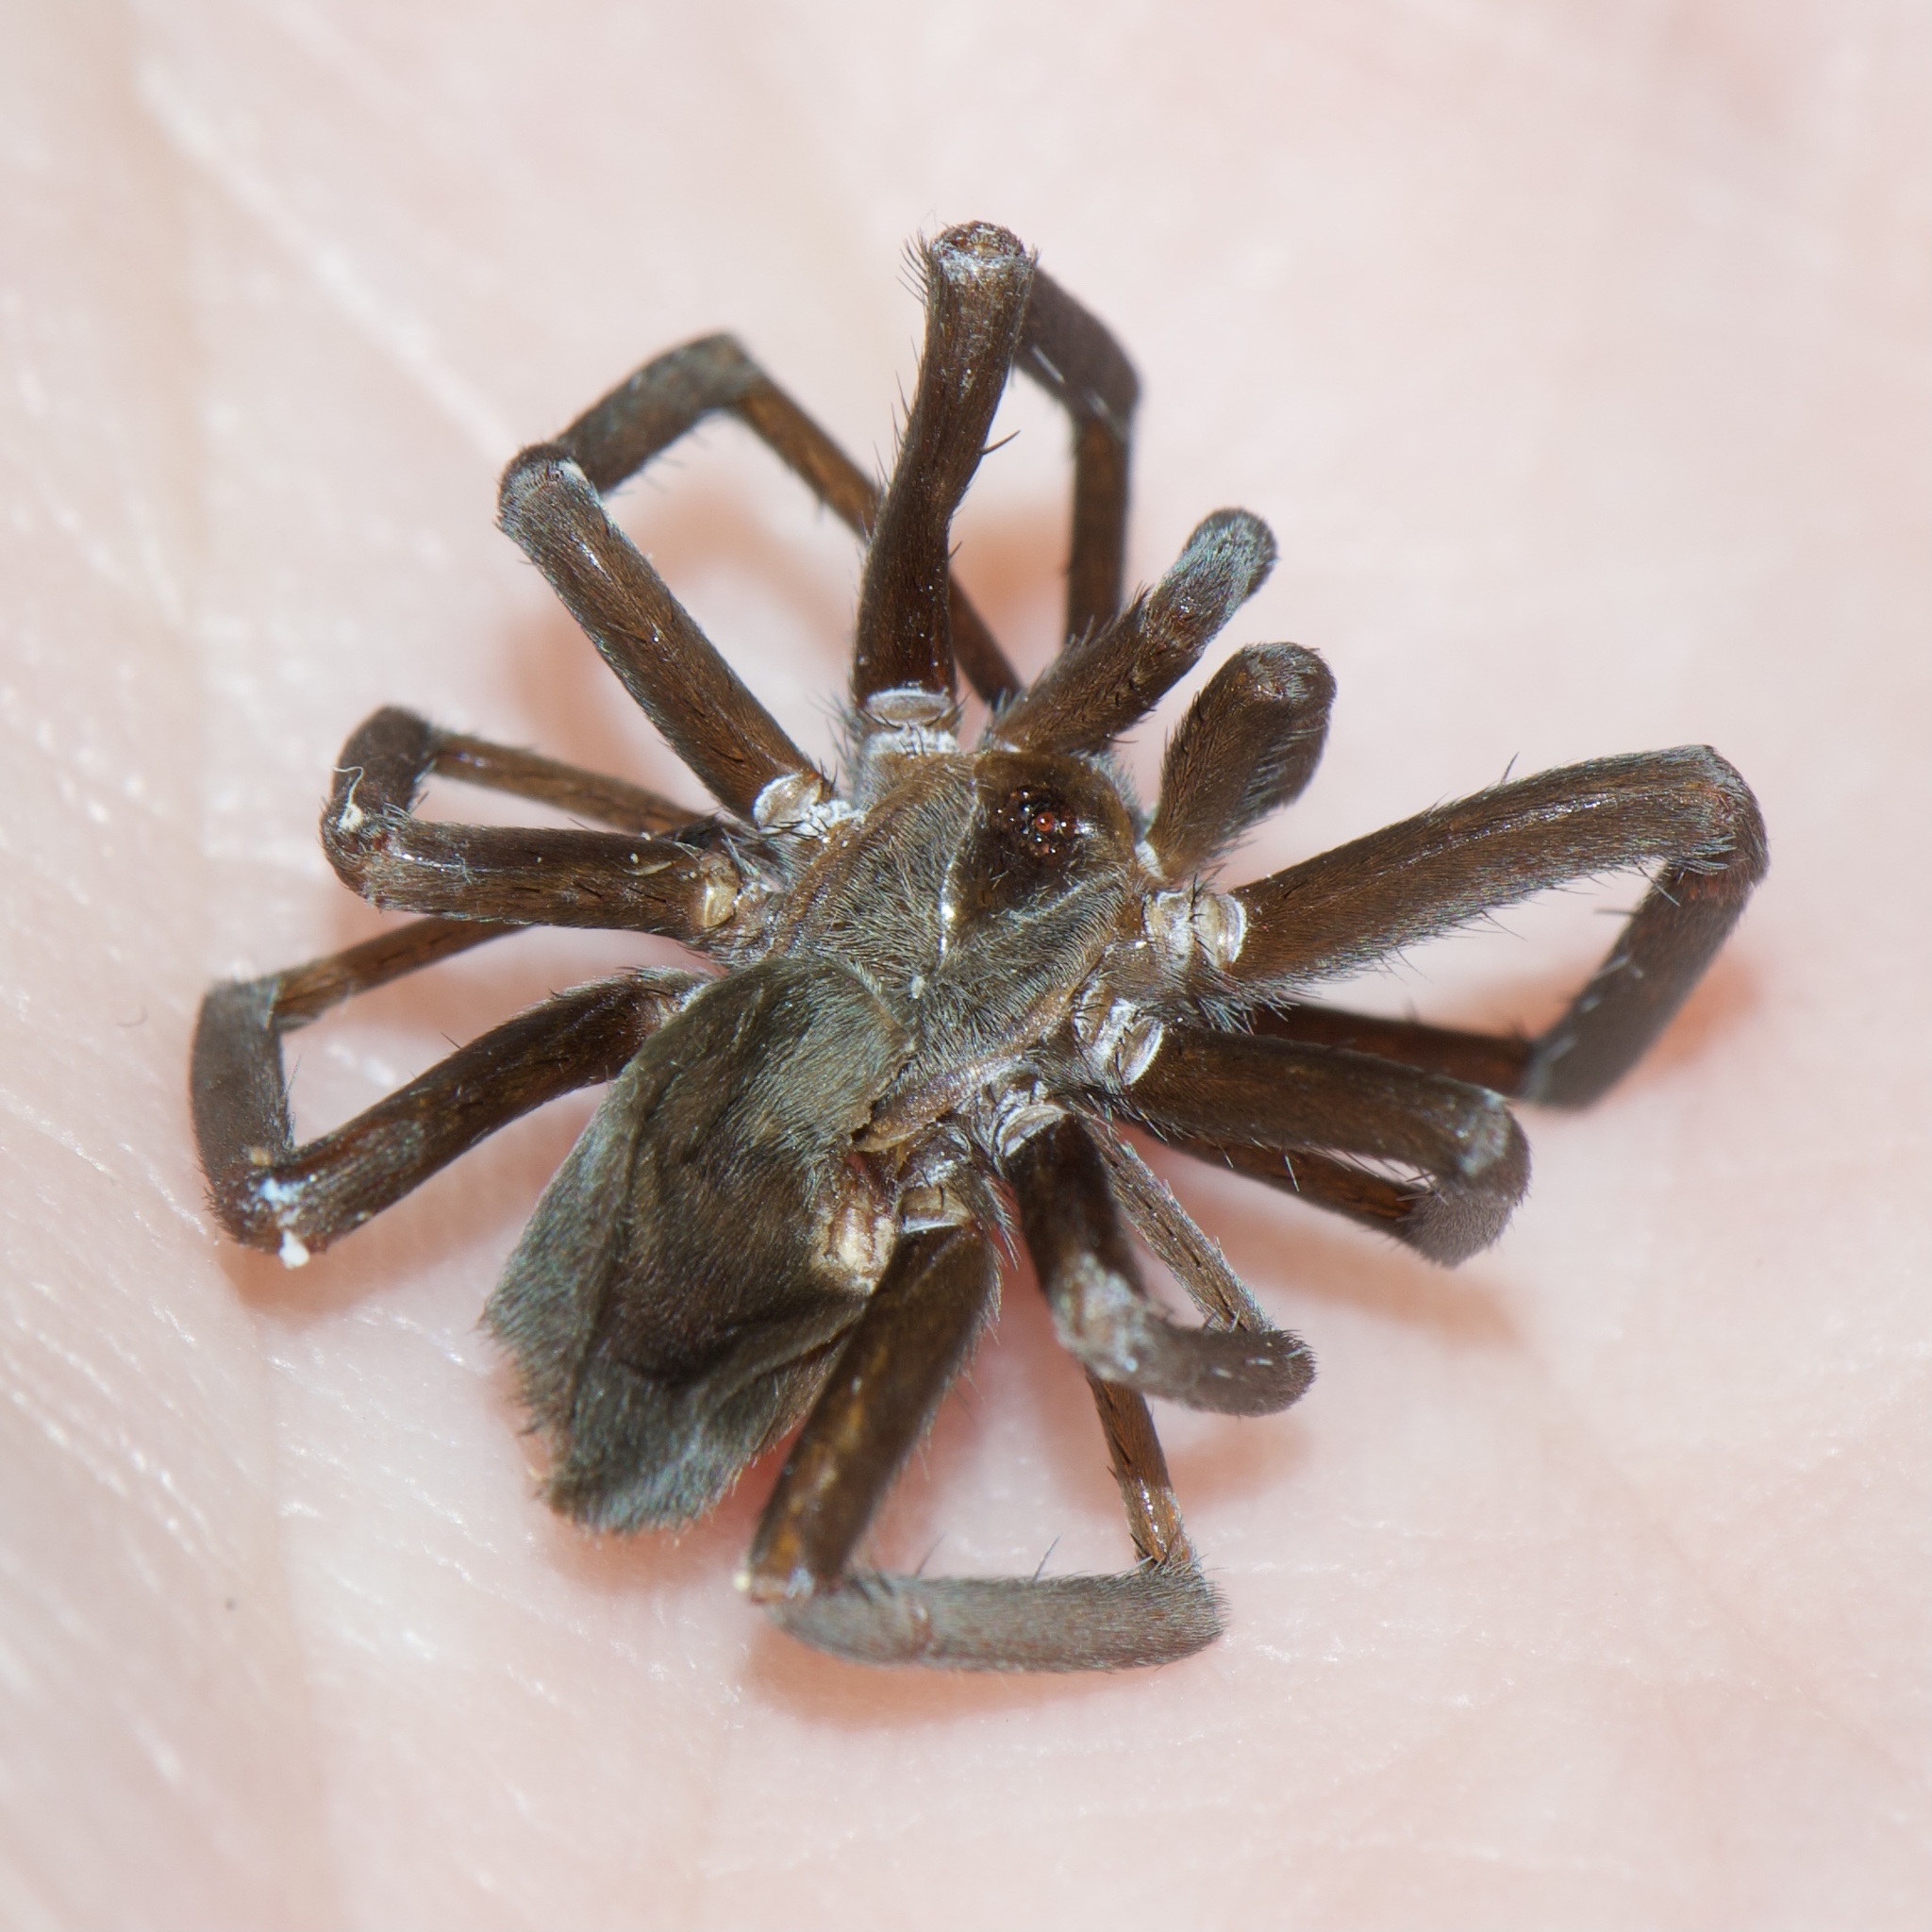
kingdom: Animalia
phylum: Arthropoda
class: Arachnida
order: Araneae
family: Filistatidae
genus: Kukulcania
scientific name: Kukulcania hibernalis
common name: Crevice weaver
